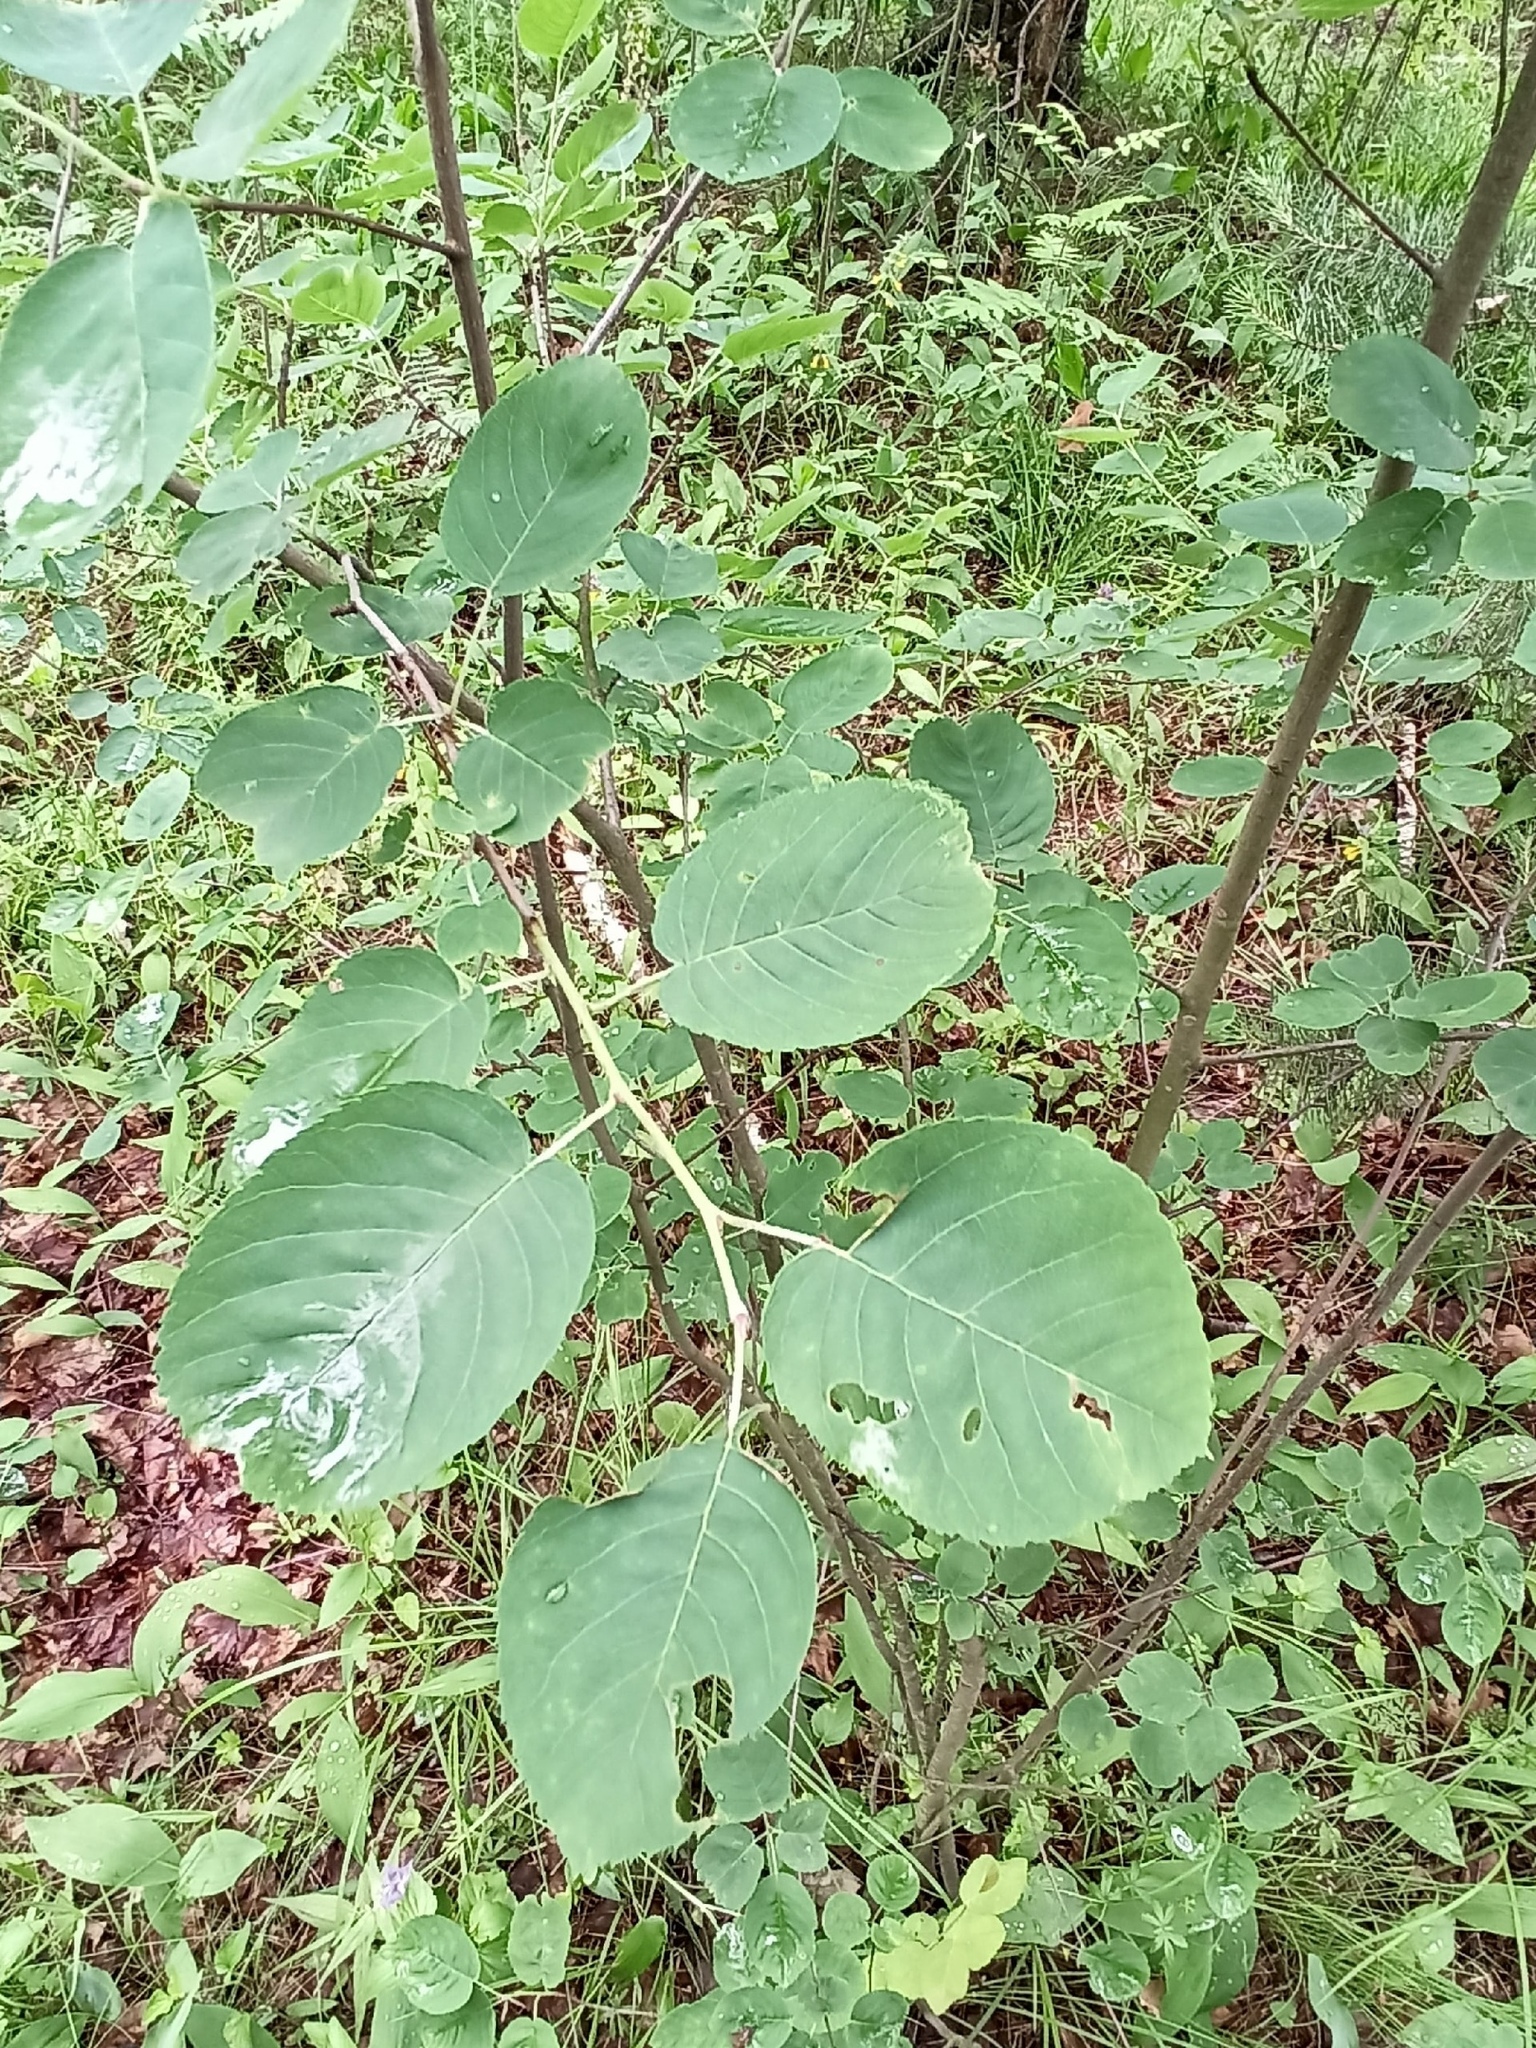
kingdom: Plantae
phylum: Tracheophyta
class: Magnoliopsida
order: Rosales
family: Rosaceae
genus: Amelanchier
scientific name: Amelanchier
